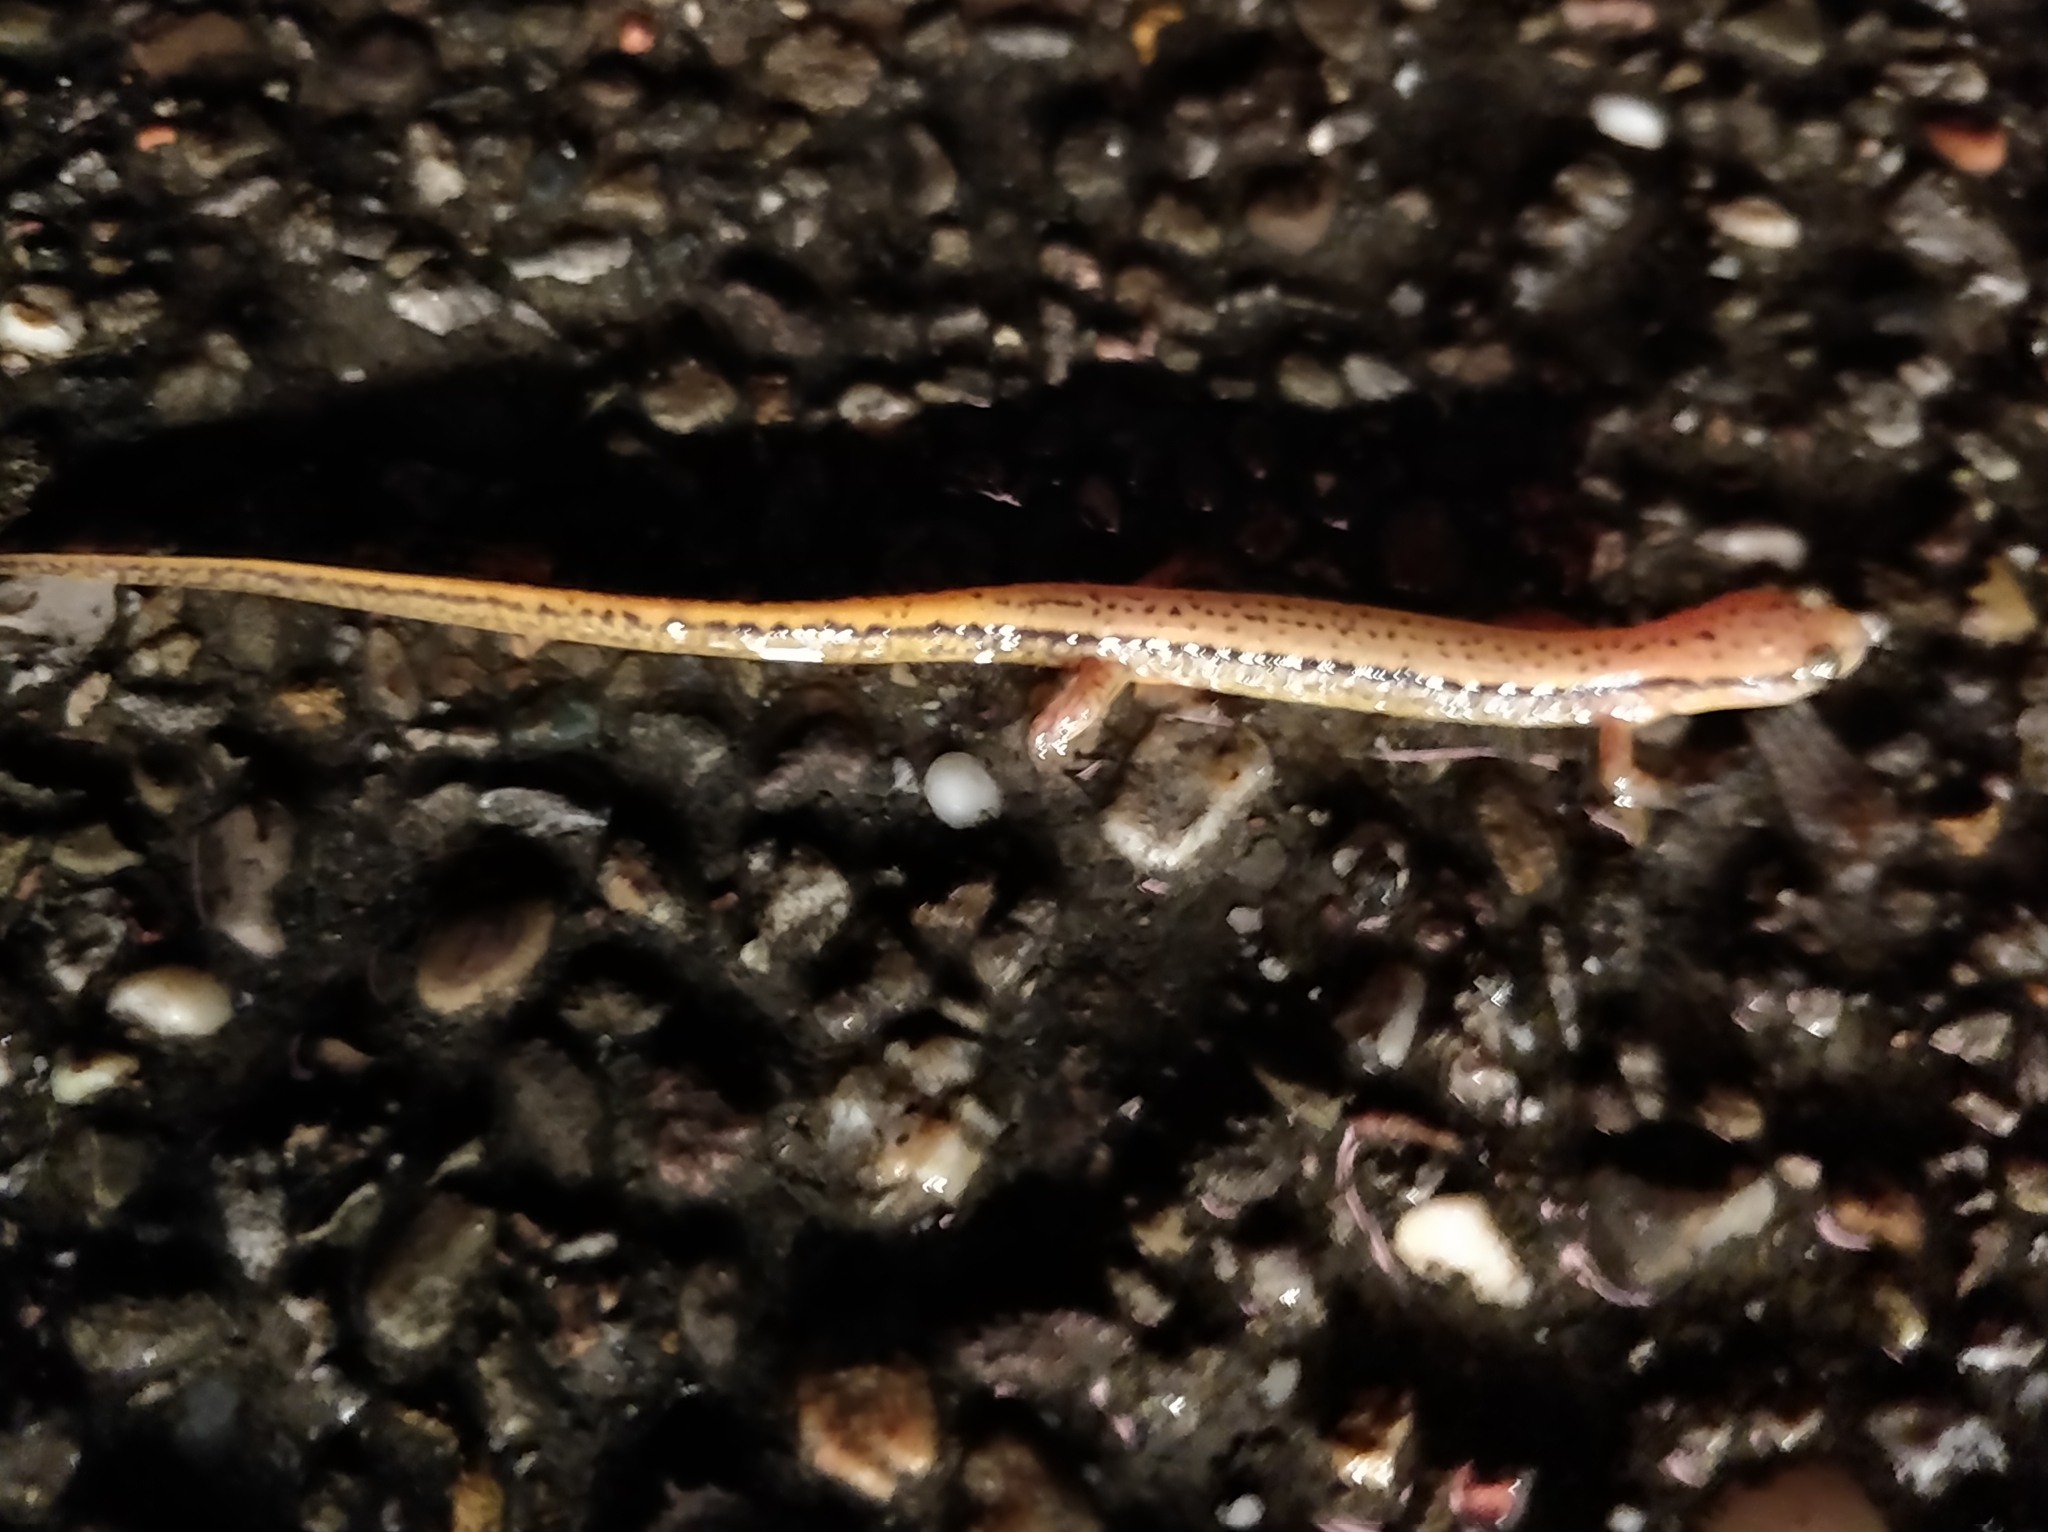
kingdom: Animalia
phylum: Chordata
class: Amphibia
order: Caudata
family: Plethodontidae
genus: Eurycea
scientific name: Eurycea cirrigera
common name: Southern two-lined salamander
